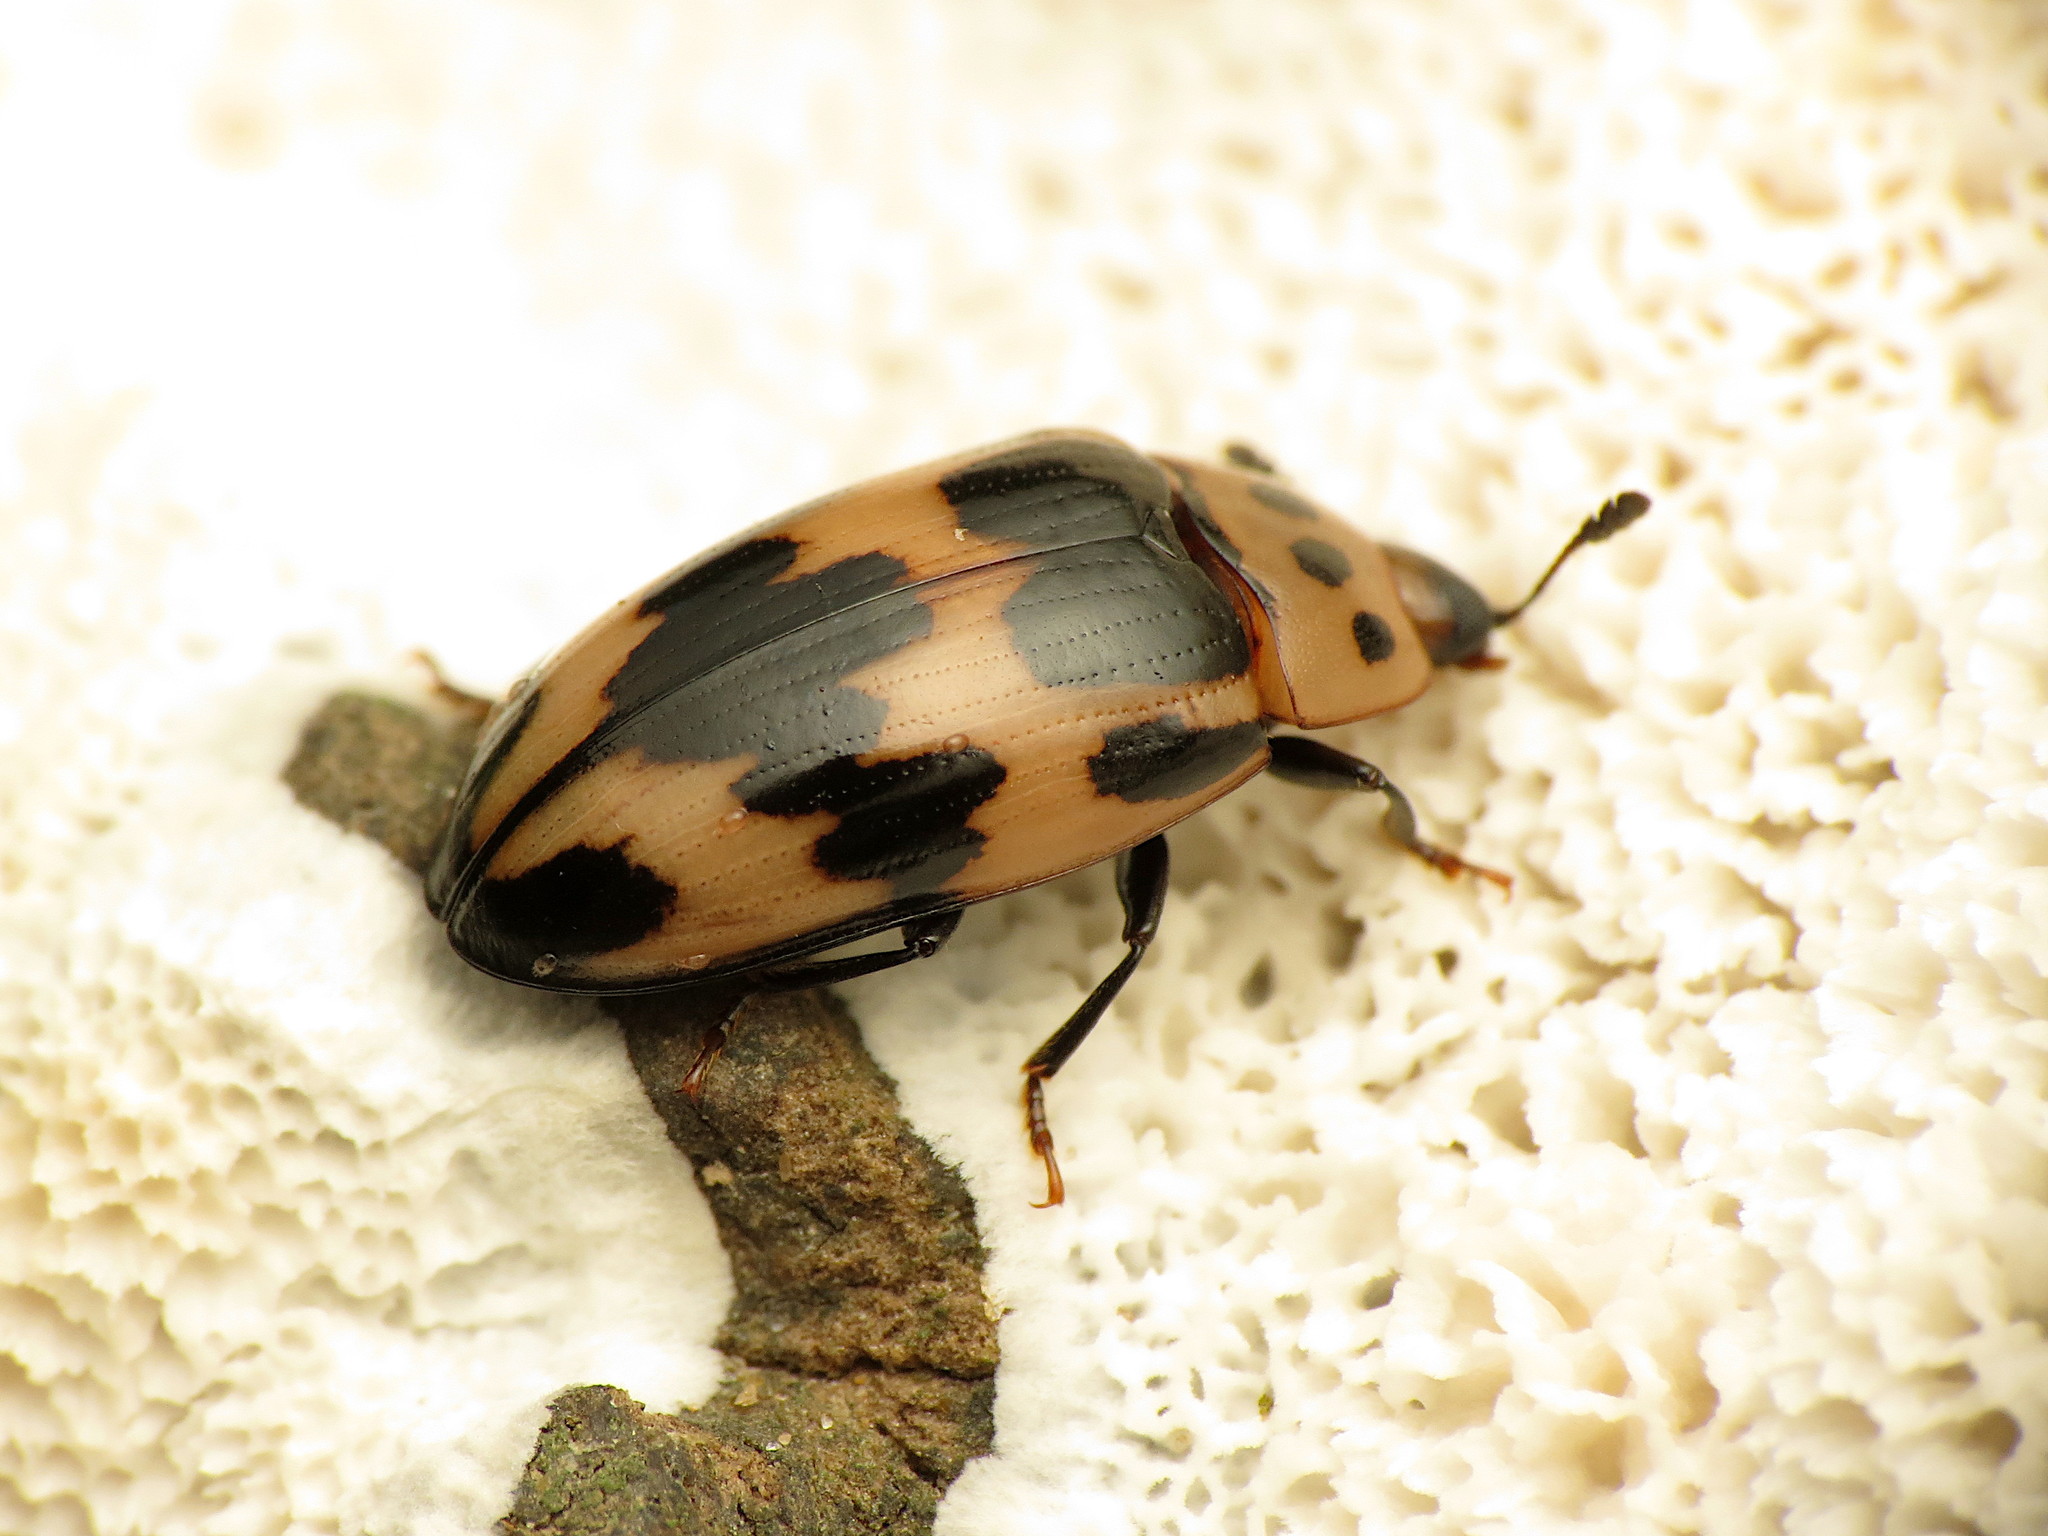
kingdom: Animalia
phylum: Arthropoda
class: Insecta
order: Coleoptera
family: Erotylidae
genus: Ischyrus
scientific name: Ischyrus quadripunctatus
